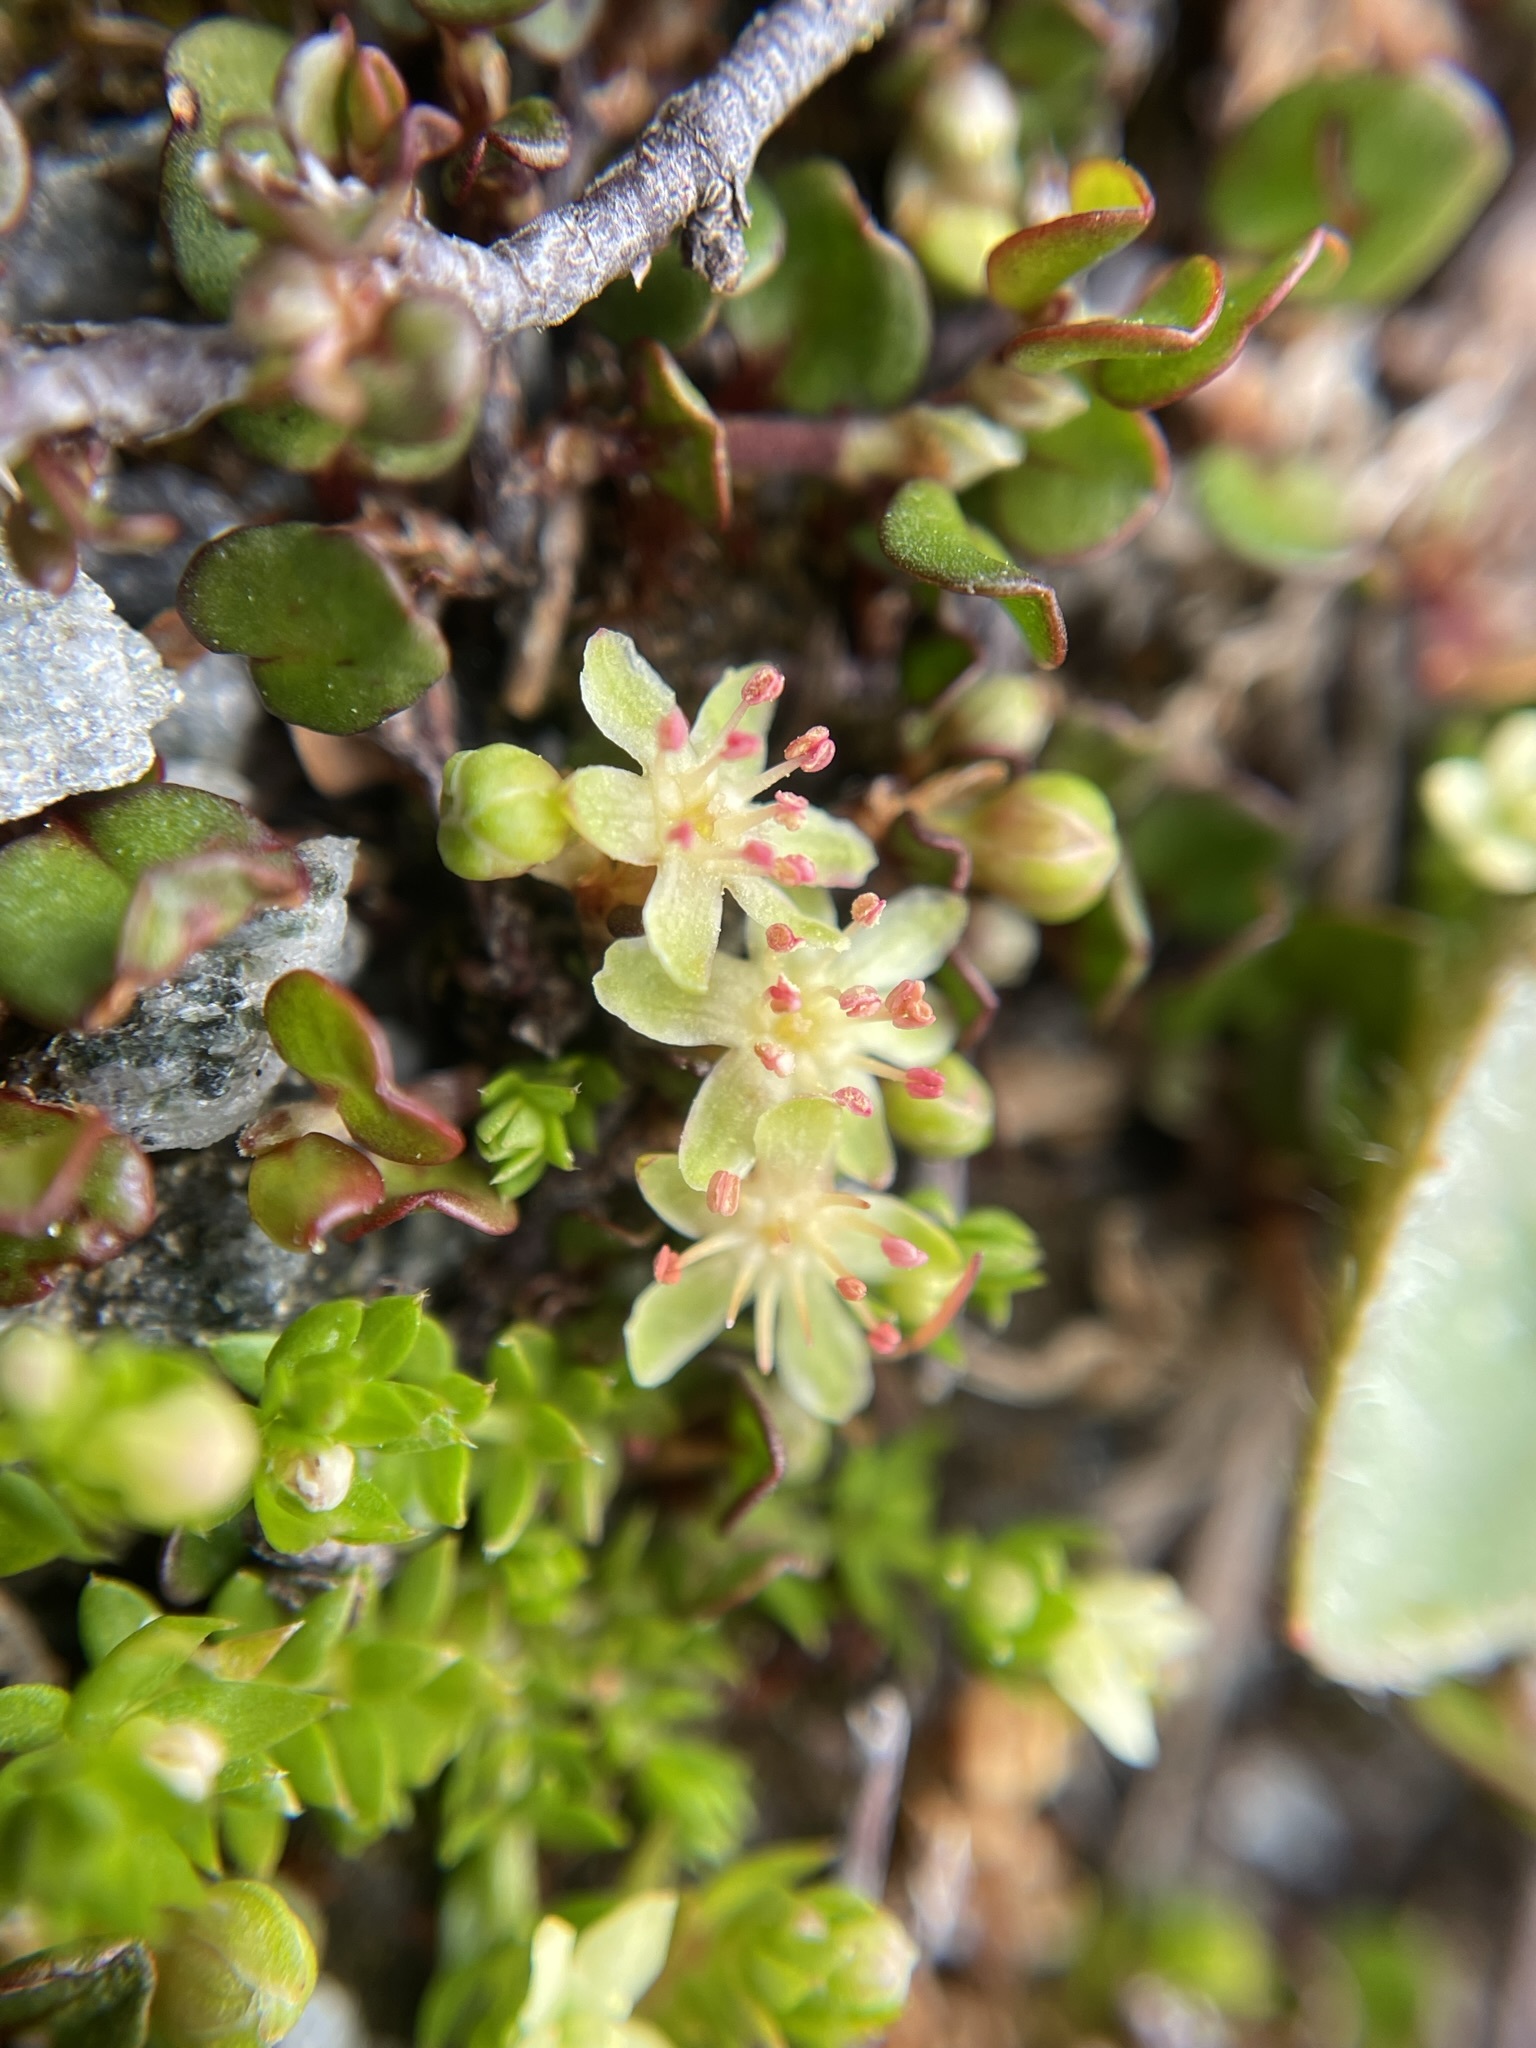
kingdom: Plantae
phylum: Tracheophyta
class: Magnoliopsida
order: Caryophyllales
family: Polygonaceae
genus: Muehlenbeckia
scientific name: Muehlenbeckia axillaris
